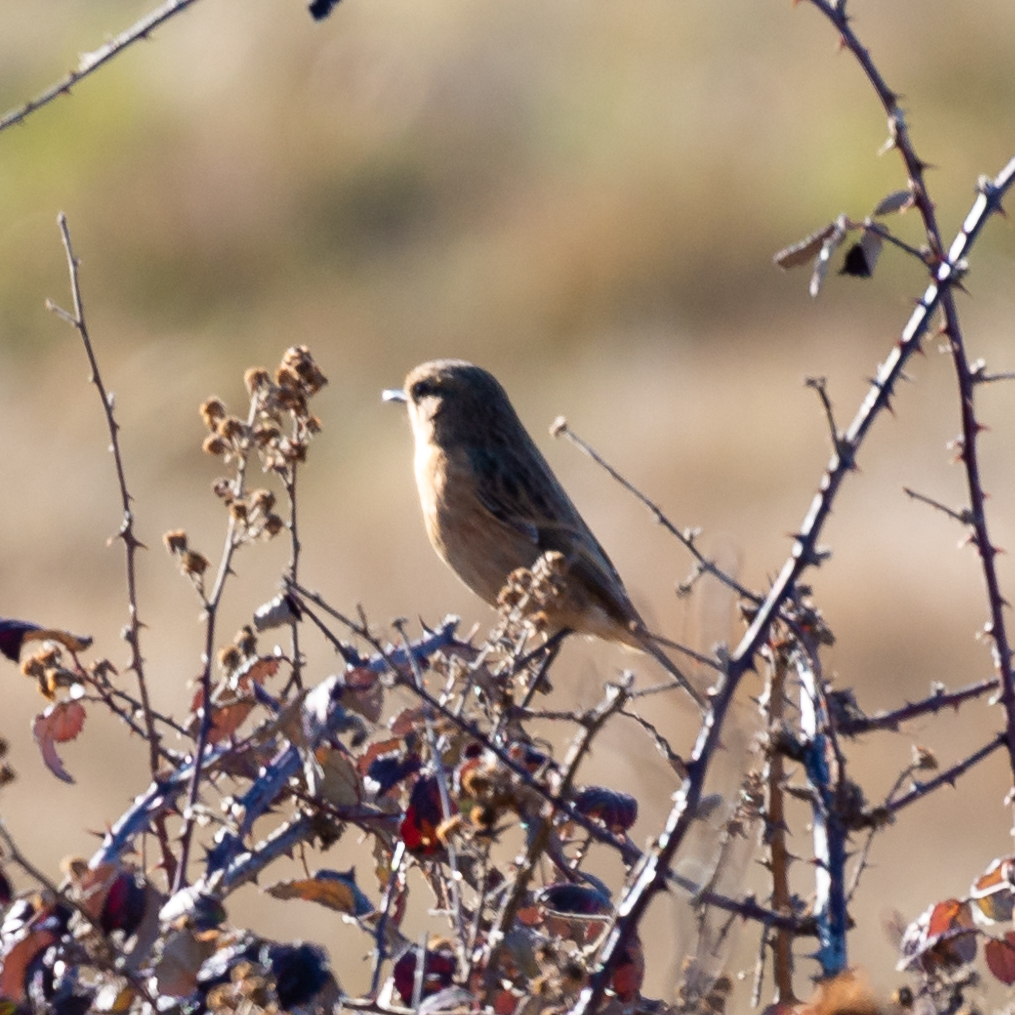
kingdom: Animalia
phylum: Chordata
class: Aves
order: Passeriformes
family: Muscicapidae
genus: Saxicola
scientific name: Saxicola rubicola
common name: European stonechat
